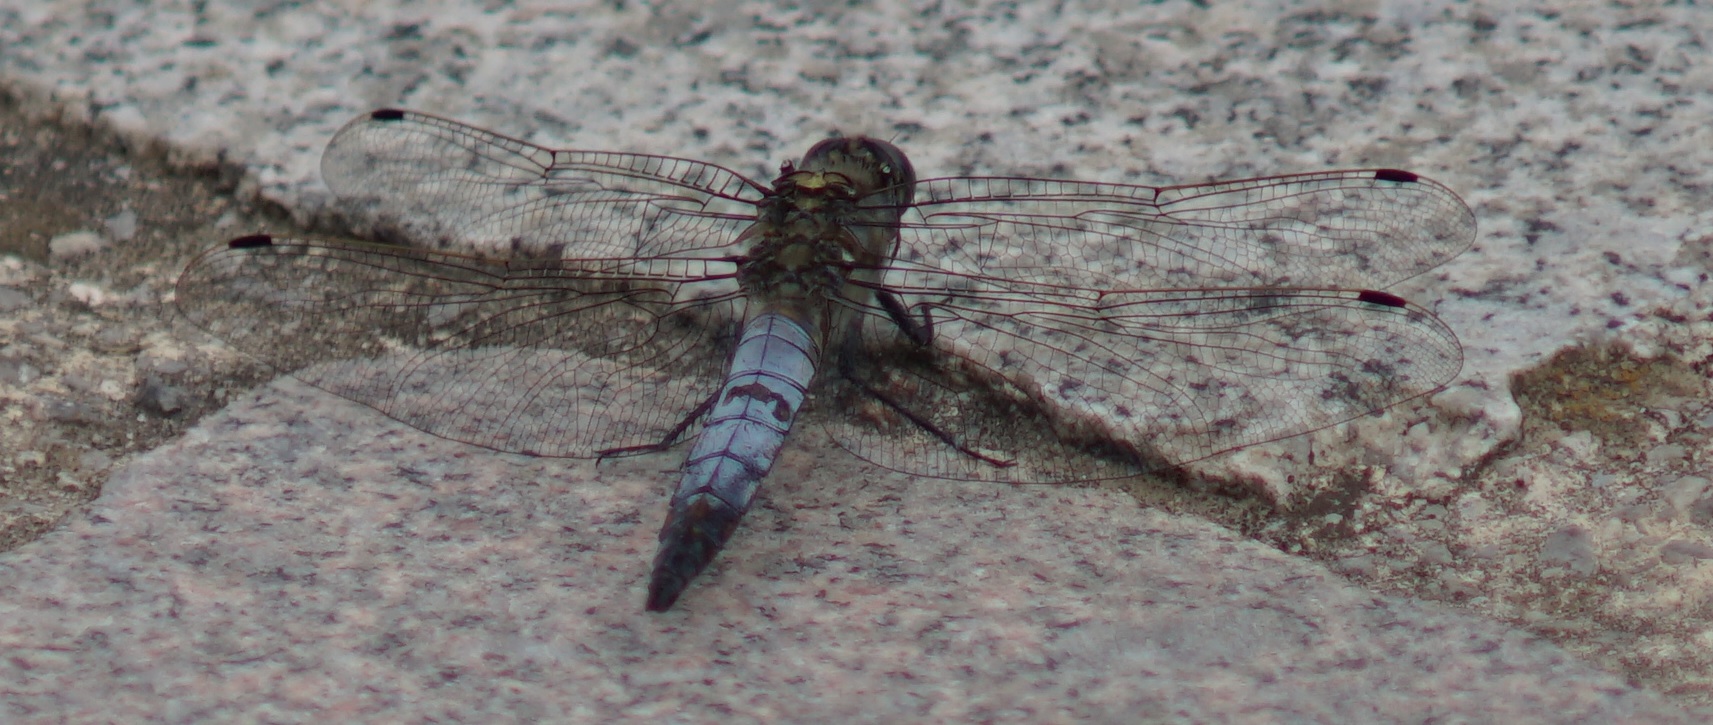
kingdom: Animalia
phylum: Arthropoda
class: Insecta
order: Odonata
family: Libellulidae
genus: Orthetrum
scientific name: Orthetrum cancellatum
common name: Black-tailed skimmer
